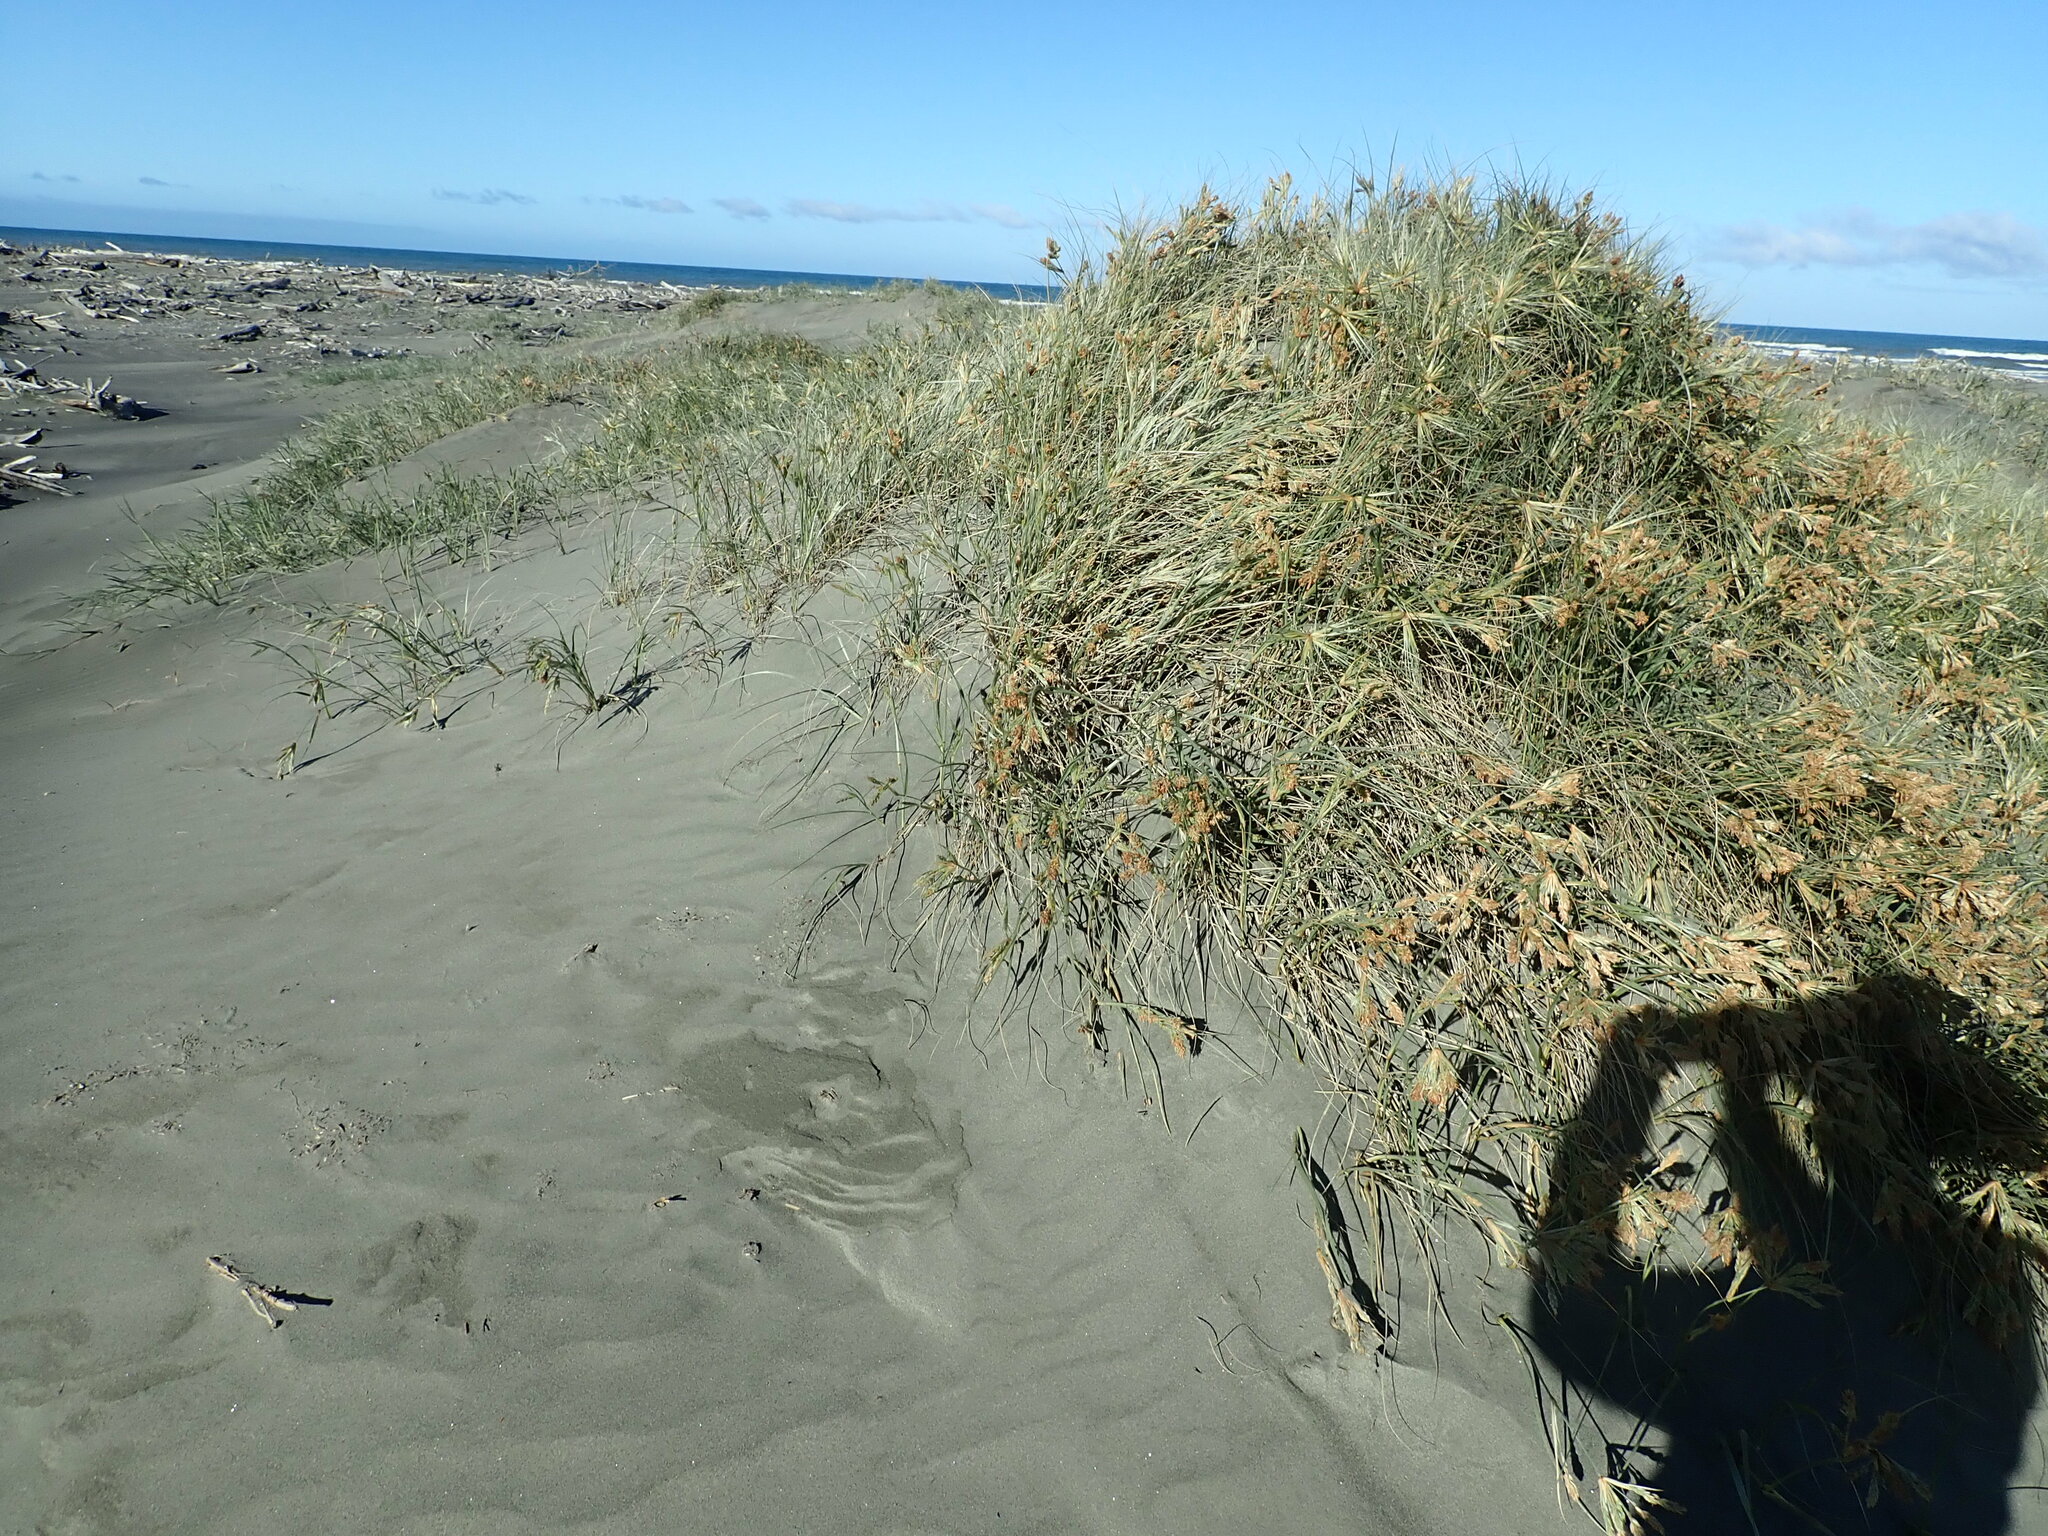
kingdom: Plantae
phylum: Tracheophyta
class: Liliopsida
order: Poales
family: Poaceae
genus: Spinifex
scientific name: Spinifex sericeus
